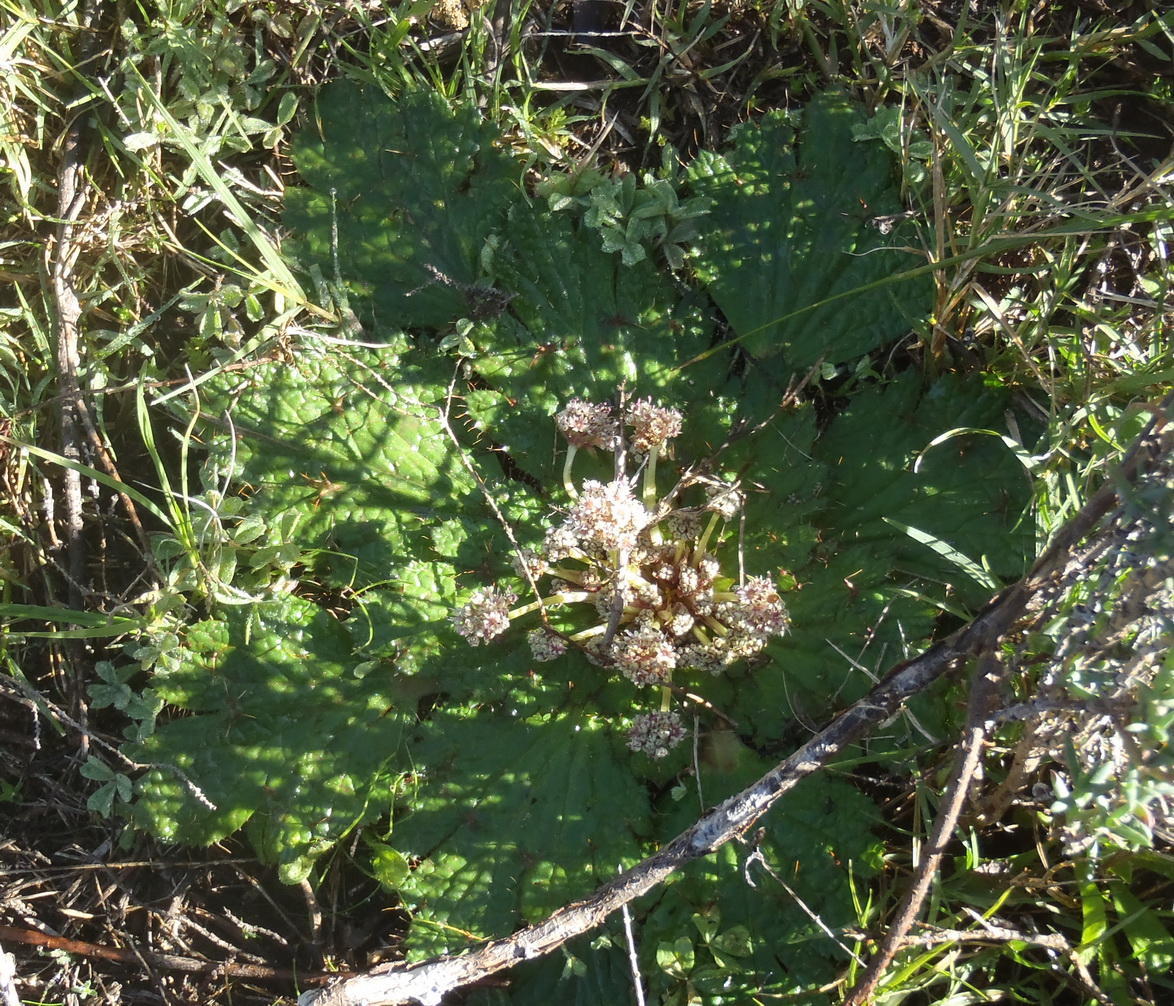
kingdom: Plantae
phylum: Tracheophyta
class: Magnoliopsida
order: Apiales
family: Apiaceae
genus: Arctopus
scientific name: Arctopus echinatus
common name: Platdoring
